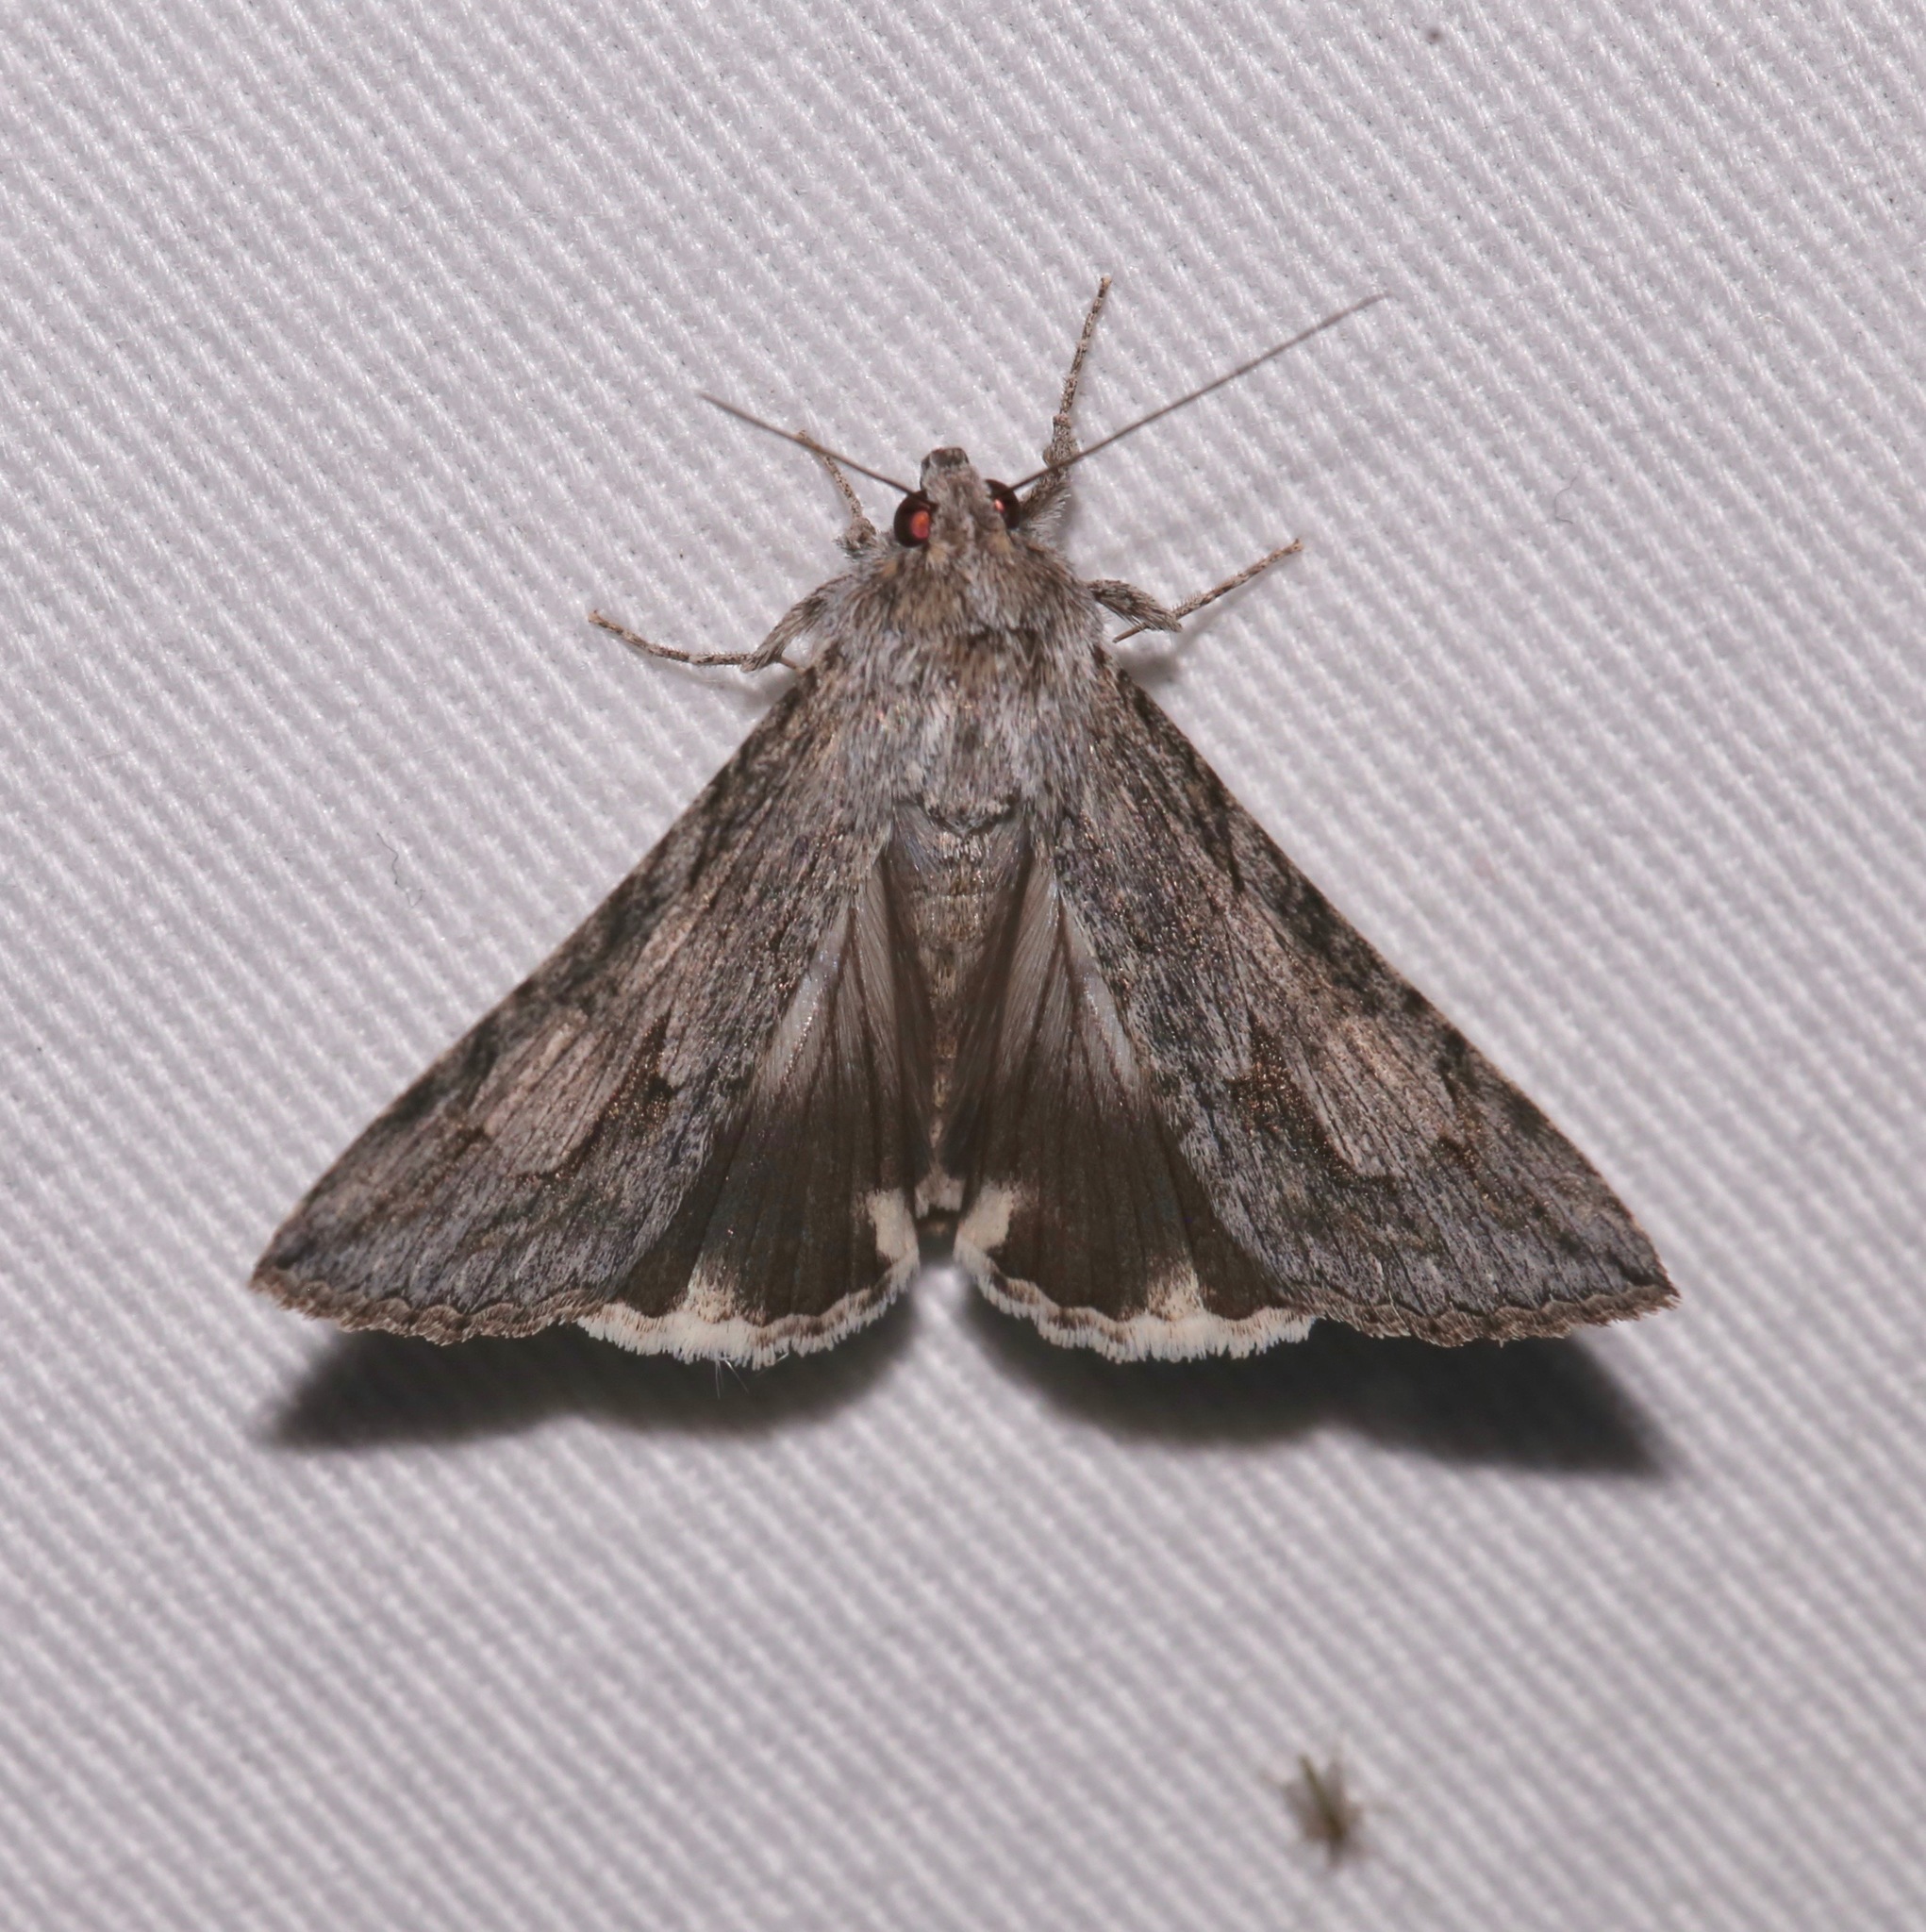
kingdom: Animalia
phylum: Arthropoda
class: Insecta
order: Lepidoptera
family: Erebidae
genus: Melipotis
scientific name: Melipotis jucunda
